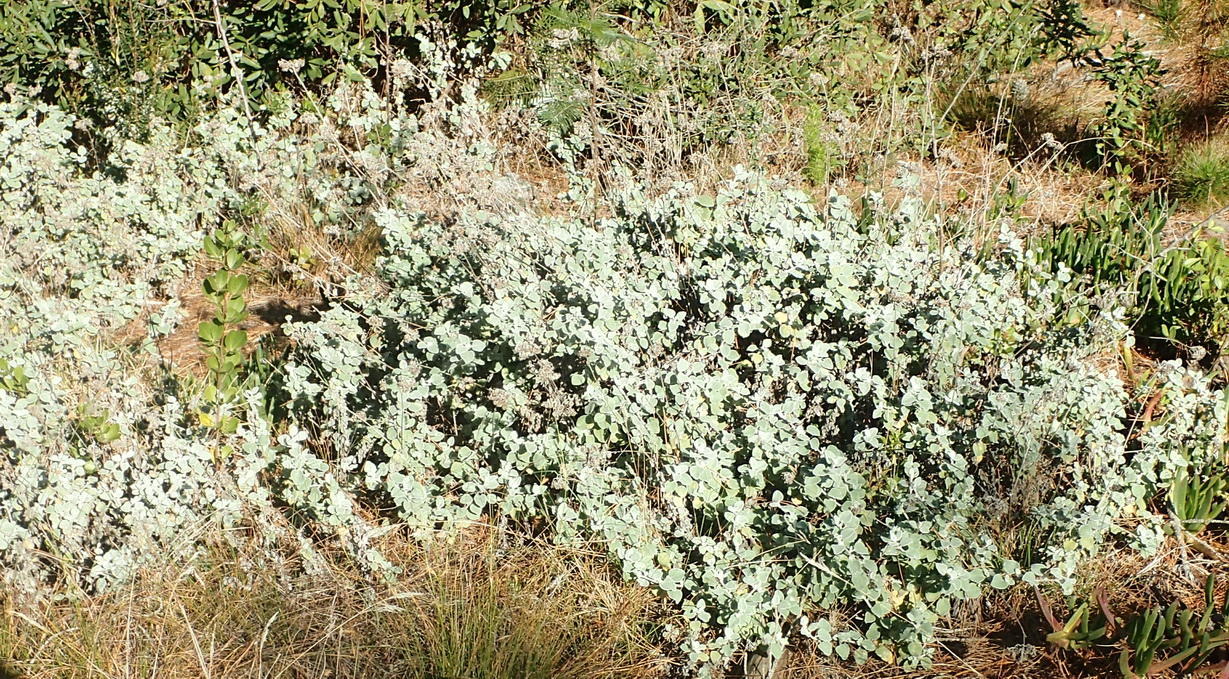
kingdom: Plantae
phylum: Tracheophyta
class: Magnoliopsida
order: Asterales
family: Asteraceae
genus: Helichrysum
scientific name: Helichrysum petiolare
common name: Licorice-plant
